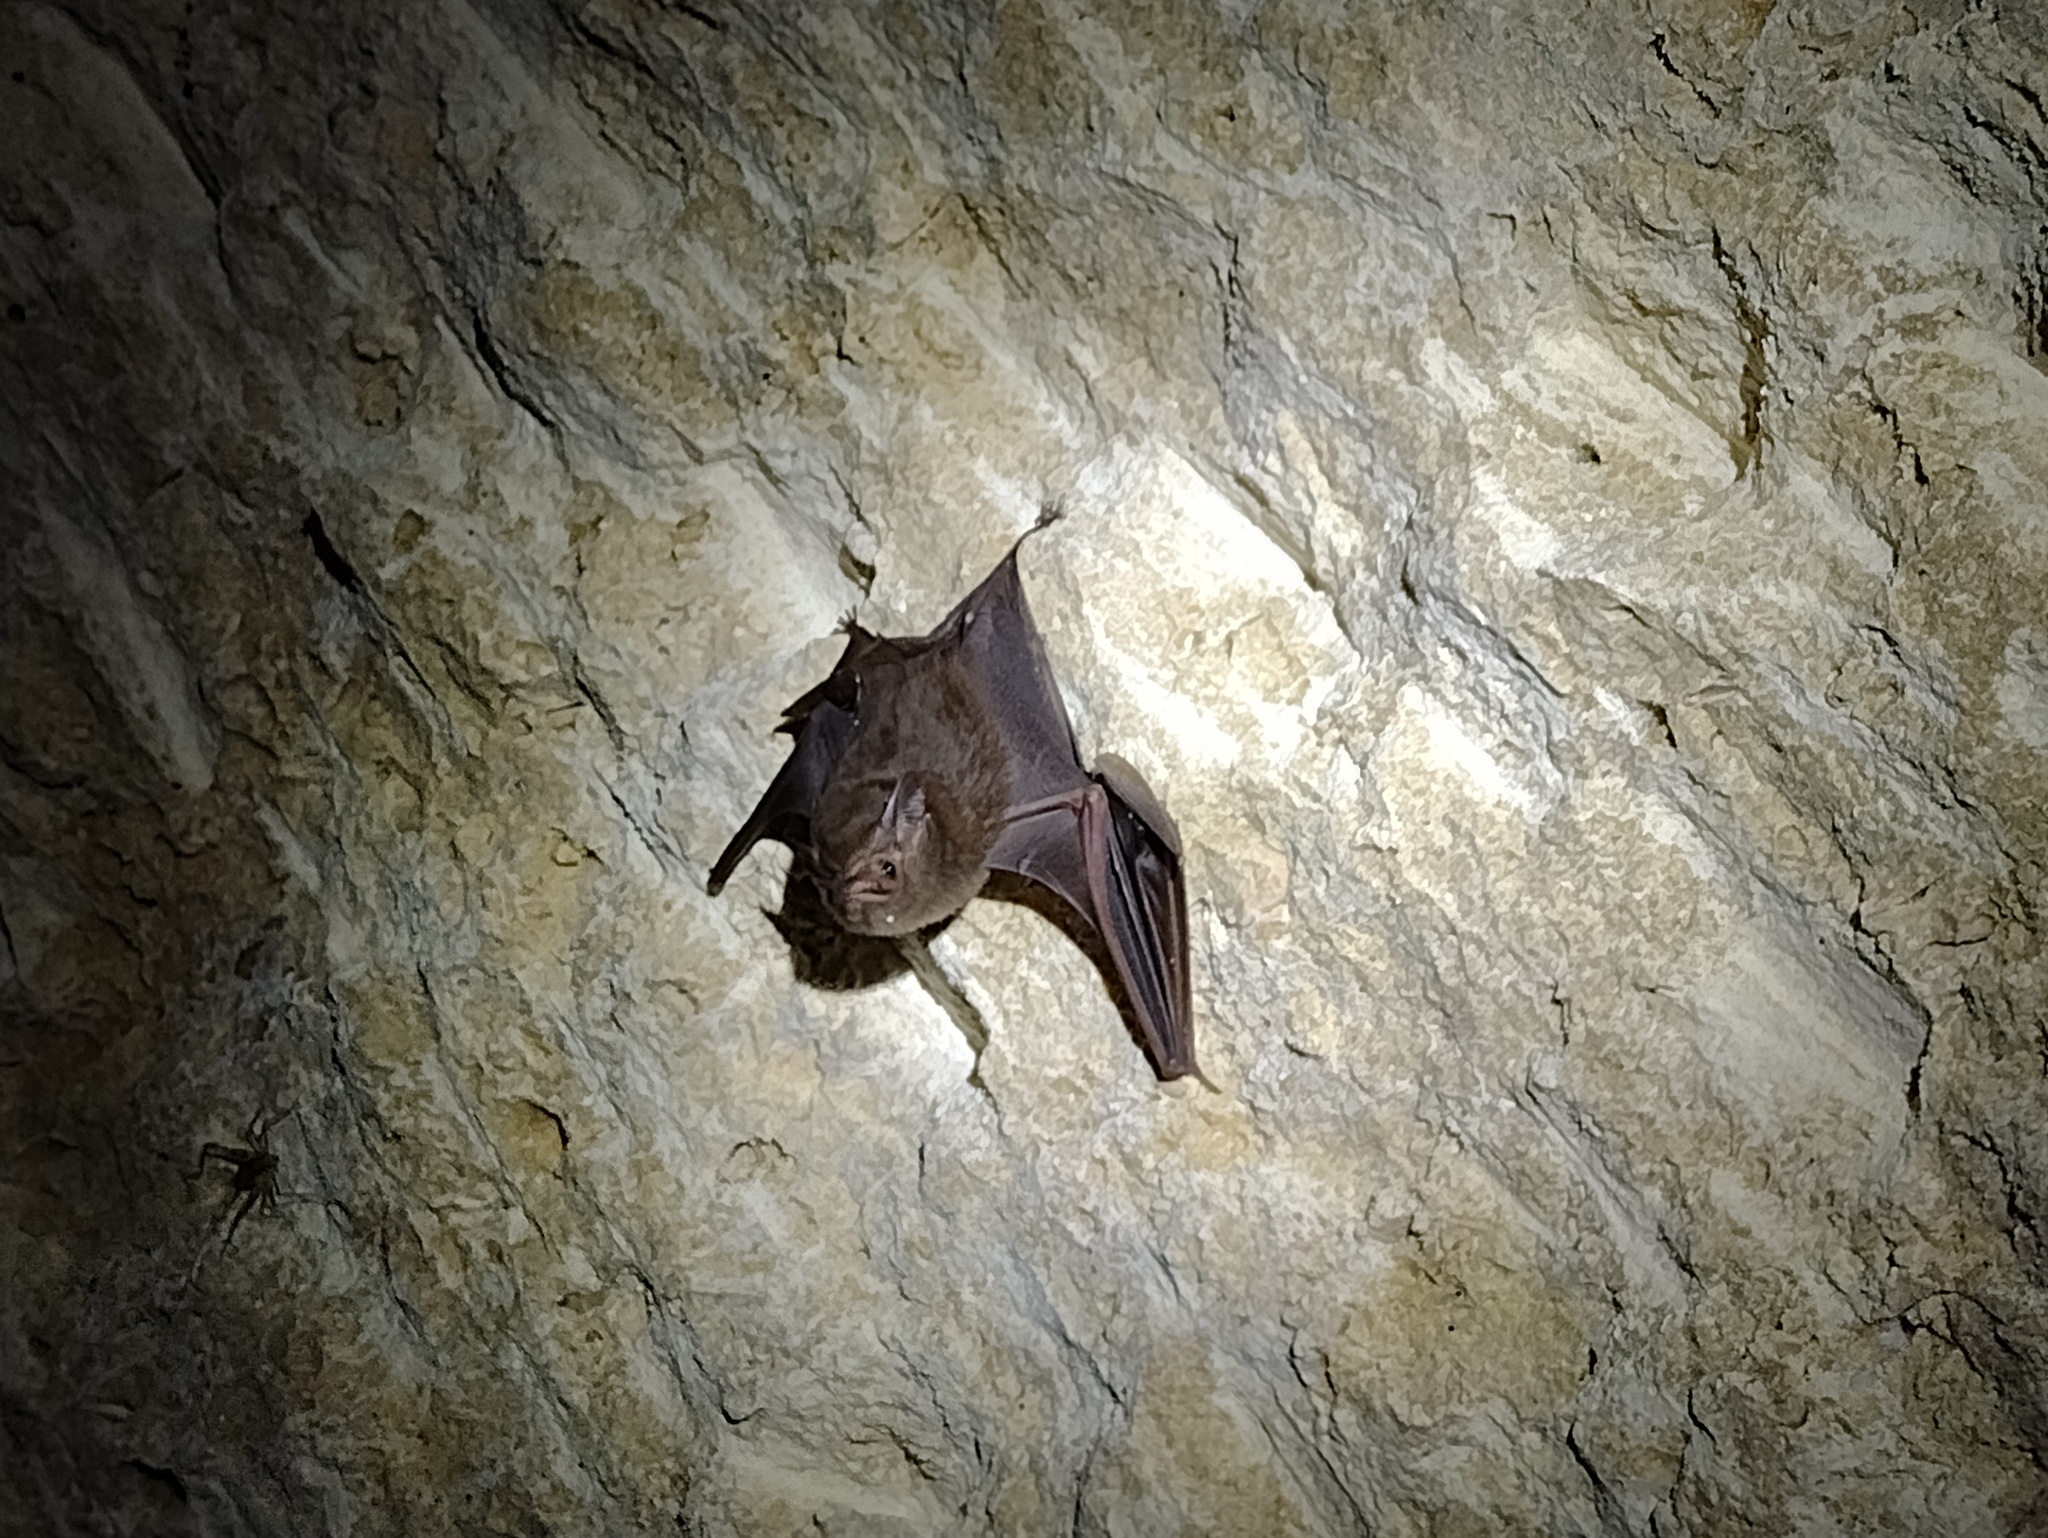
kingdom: Animalia
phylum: Chordata
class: Mammalia
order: Chiroptera
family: Emballonuridae
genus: Peropteryx
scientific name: Peropteryx macrotis
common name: Lesser dog-like bat
